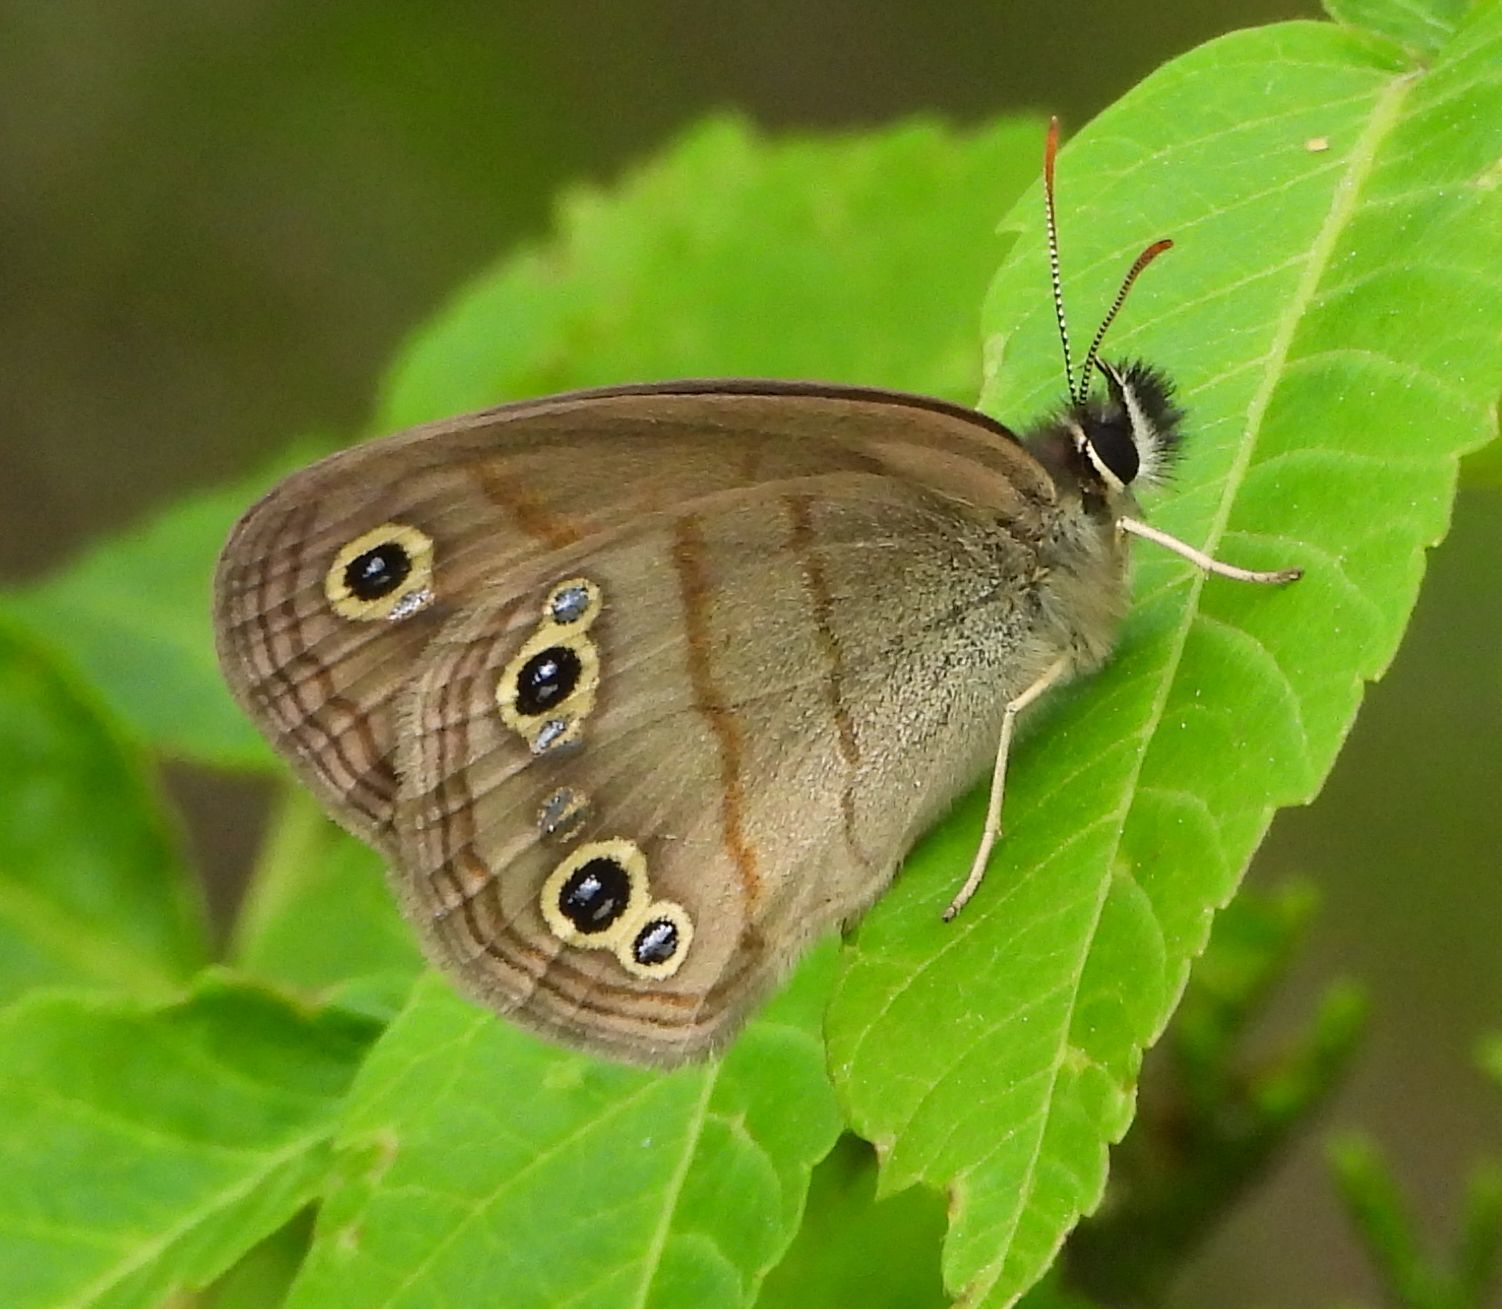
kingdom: Animalia
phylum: Arthropoda
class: Insecta
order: Lepidoptera
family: Nymphalidae
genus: Euptychia
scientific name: Euptychia cymela
